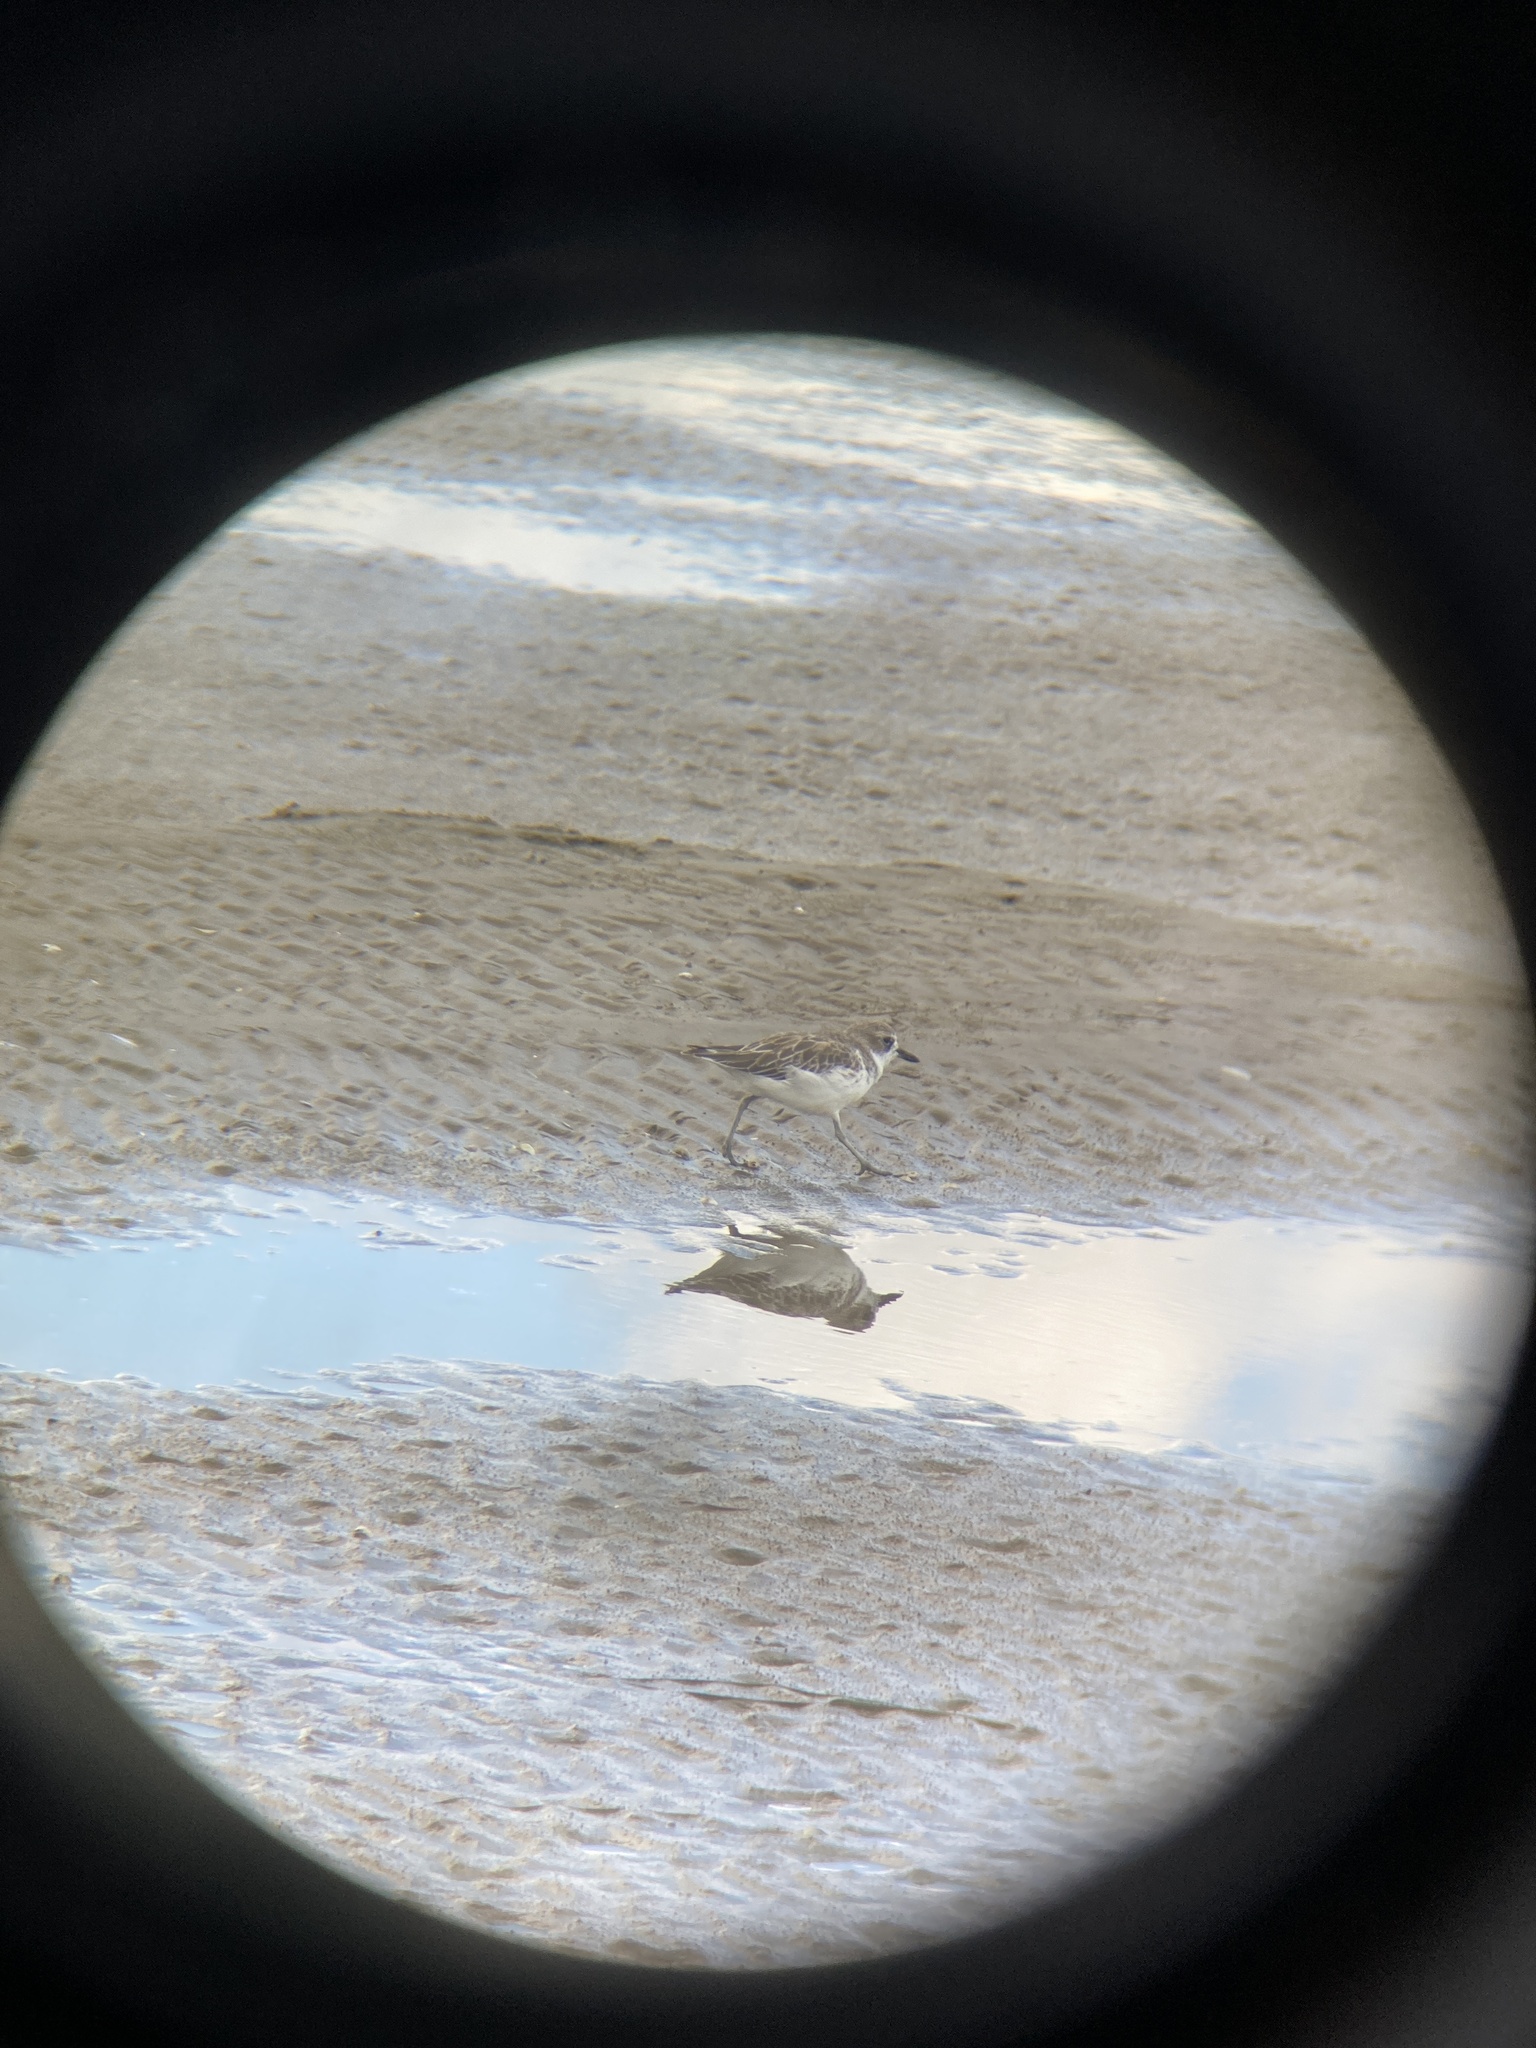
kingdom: Animalia
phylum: Chordata
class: Aves
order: Charadriiformes
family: Charadriidae
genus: Anarhynchus
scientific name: Anarhynchus
